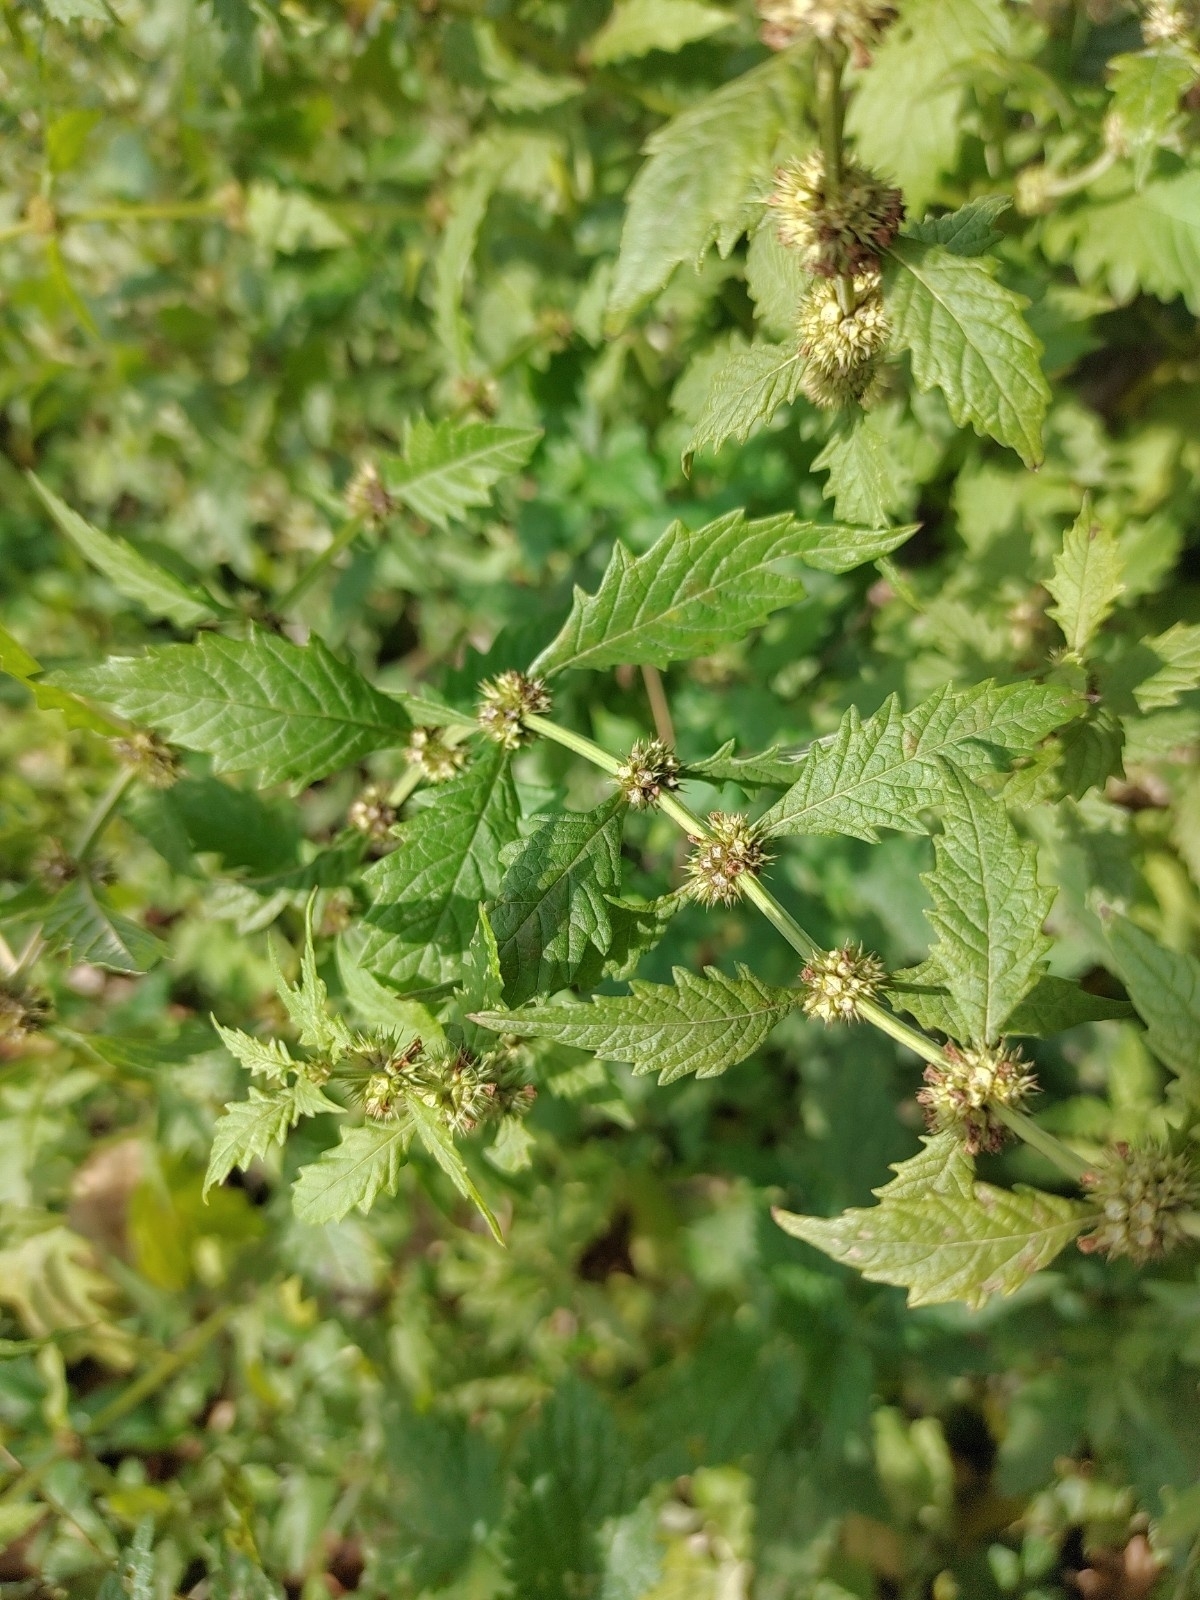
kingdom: Plantae
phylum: Tracheophyta
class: Magnoliopsida
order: Lamiales
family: Lamiaceae
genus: Lycopus
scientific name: Lycopus europaeus
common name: European bugleweed
